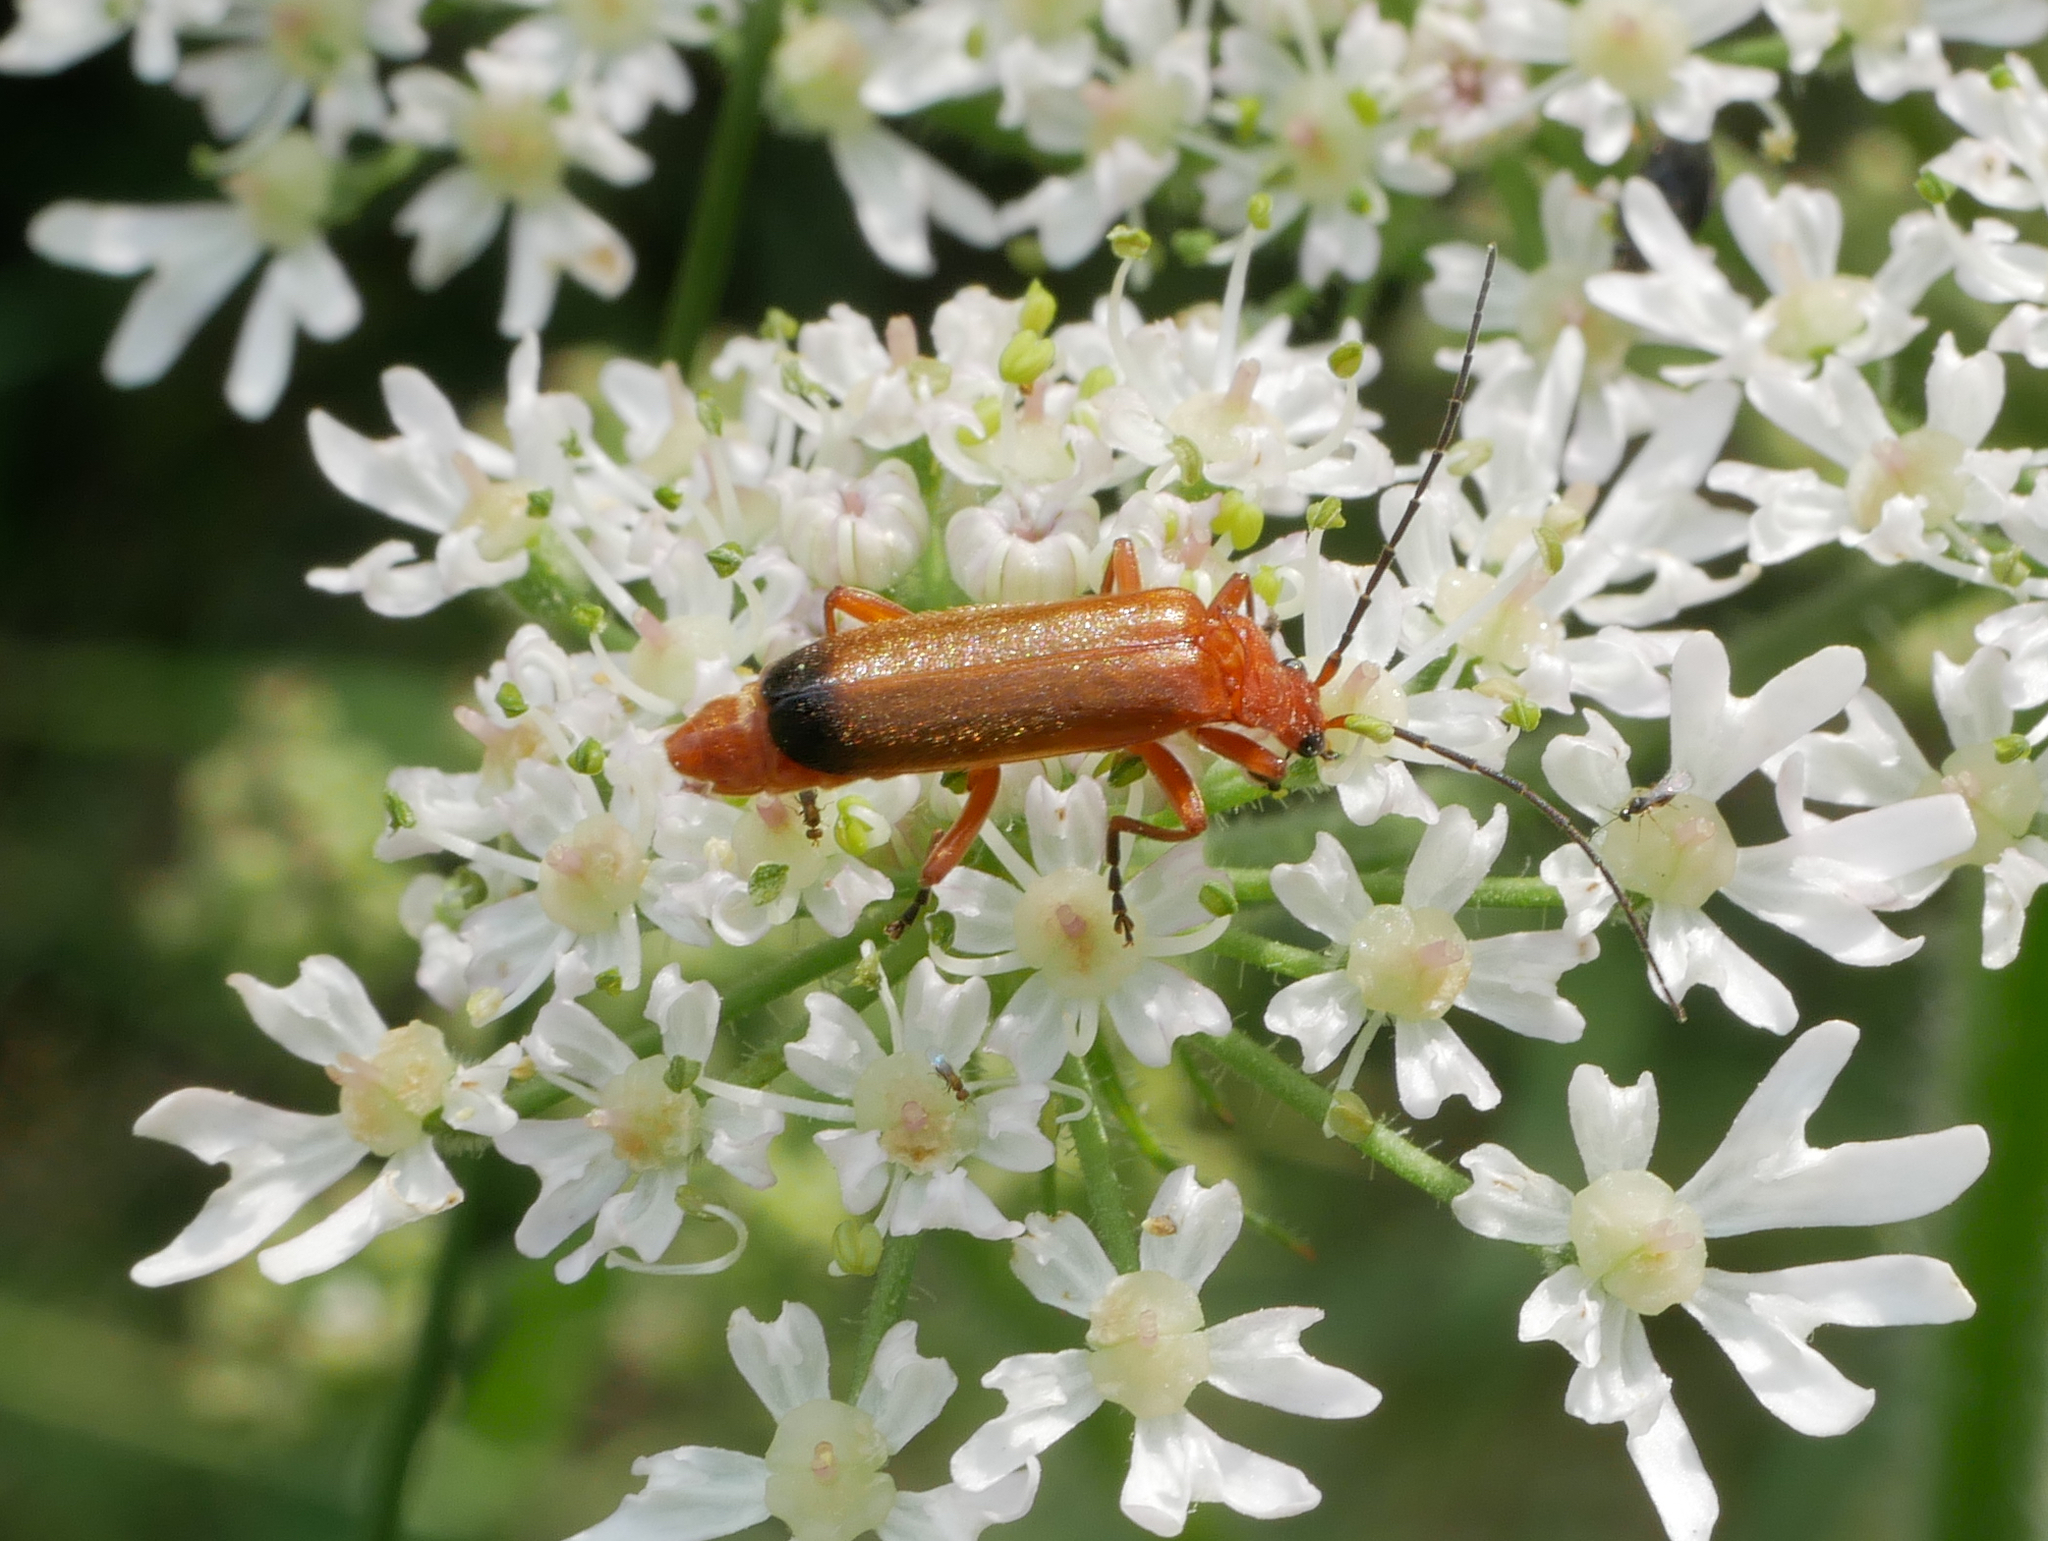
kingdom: Animalia
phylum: Arthropoda
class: Insecta
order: Coleoptera
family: Cantharidae
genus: Rhagonycha
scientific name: Rhagonycha fulva
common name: Common red soldier beetle
